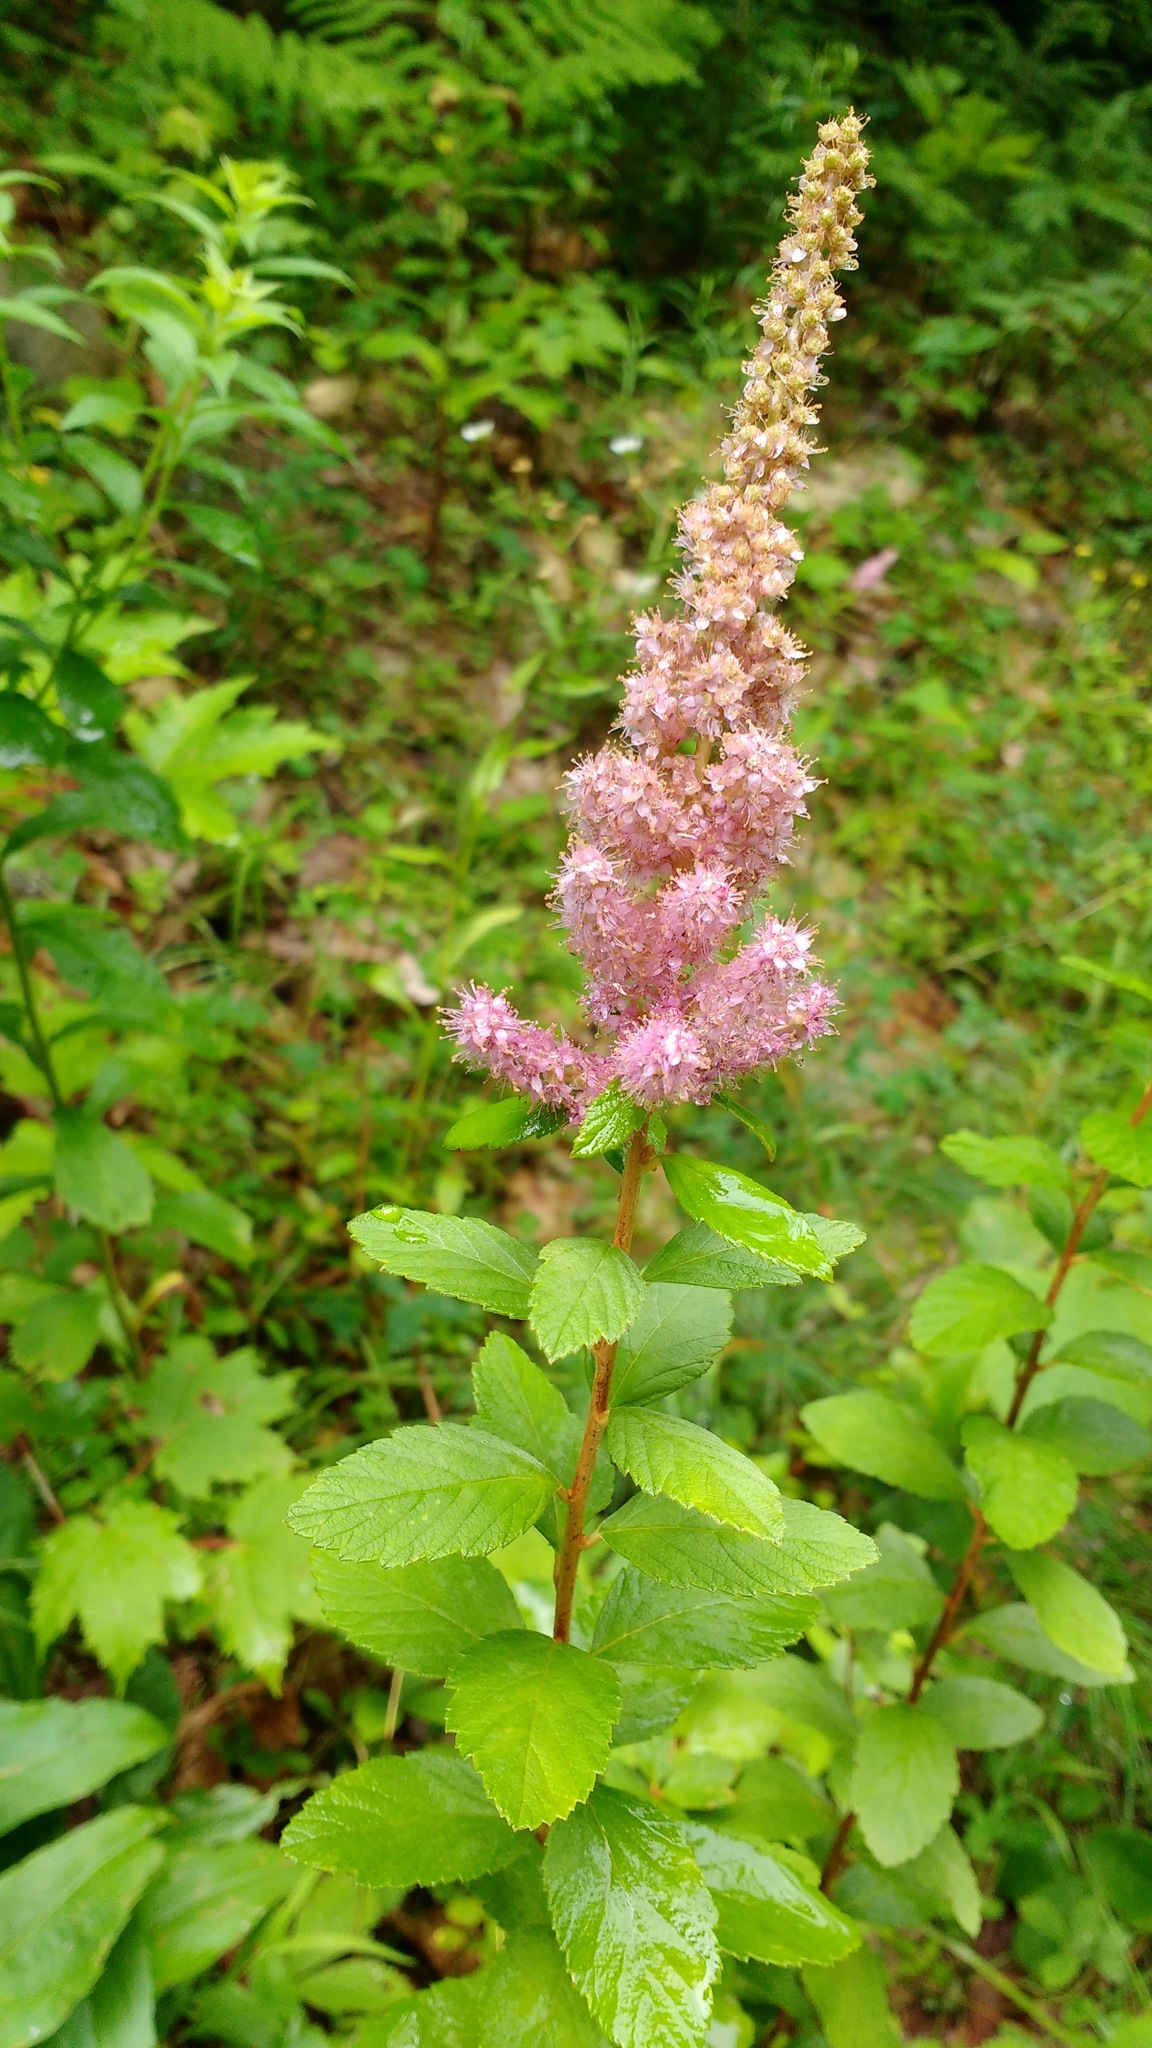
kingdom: Plantae
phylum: Tracheophyta
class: Magnoliopsida
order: Rosales
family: Rosaceae
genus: Spiraea
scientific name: Spiraea tomentosa
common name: Hardhack
